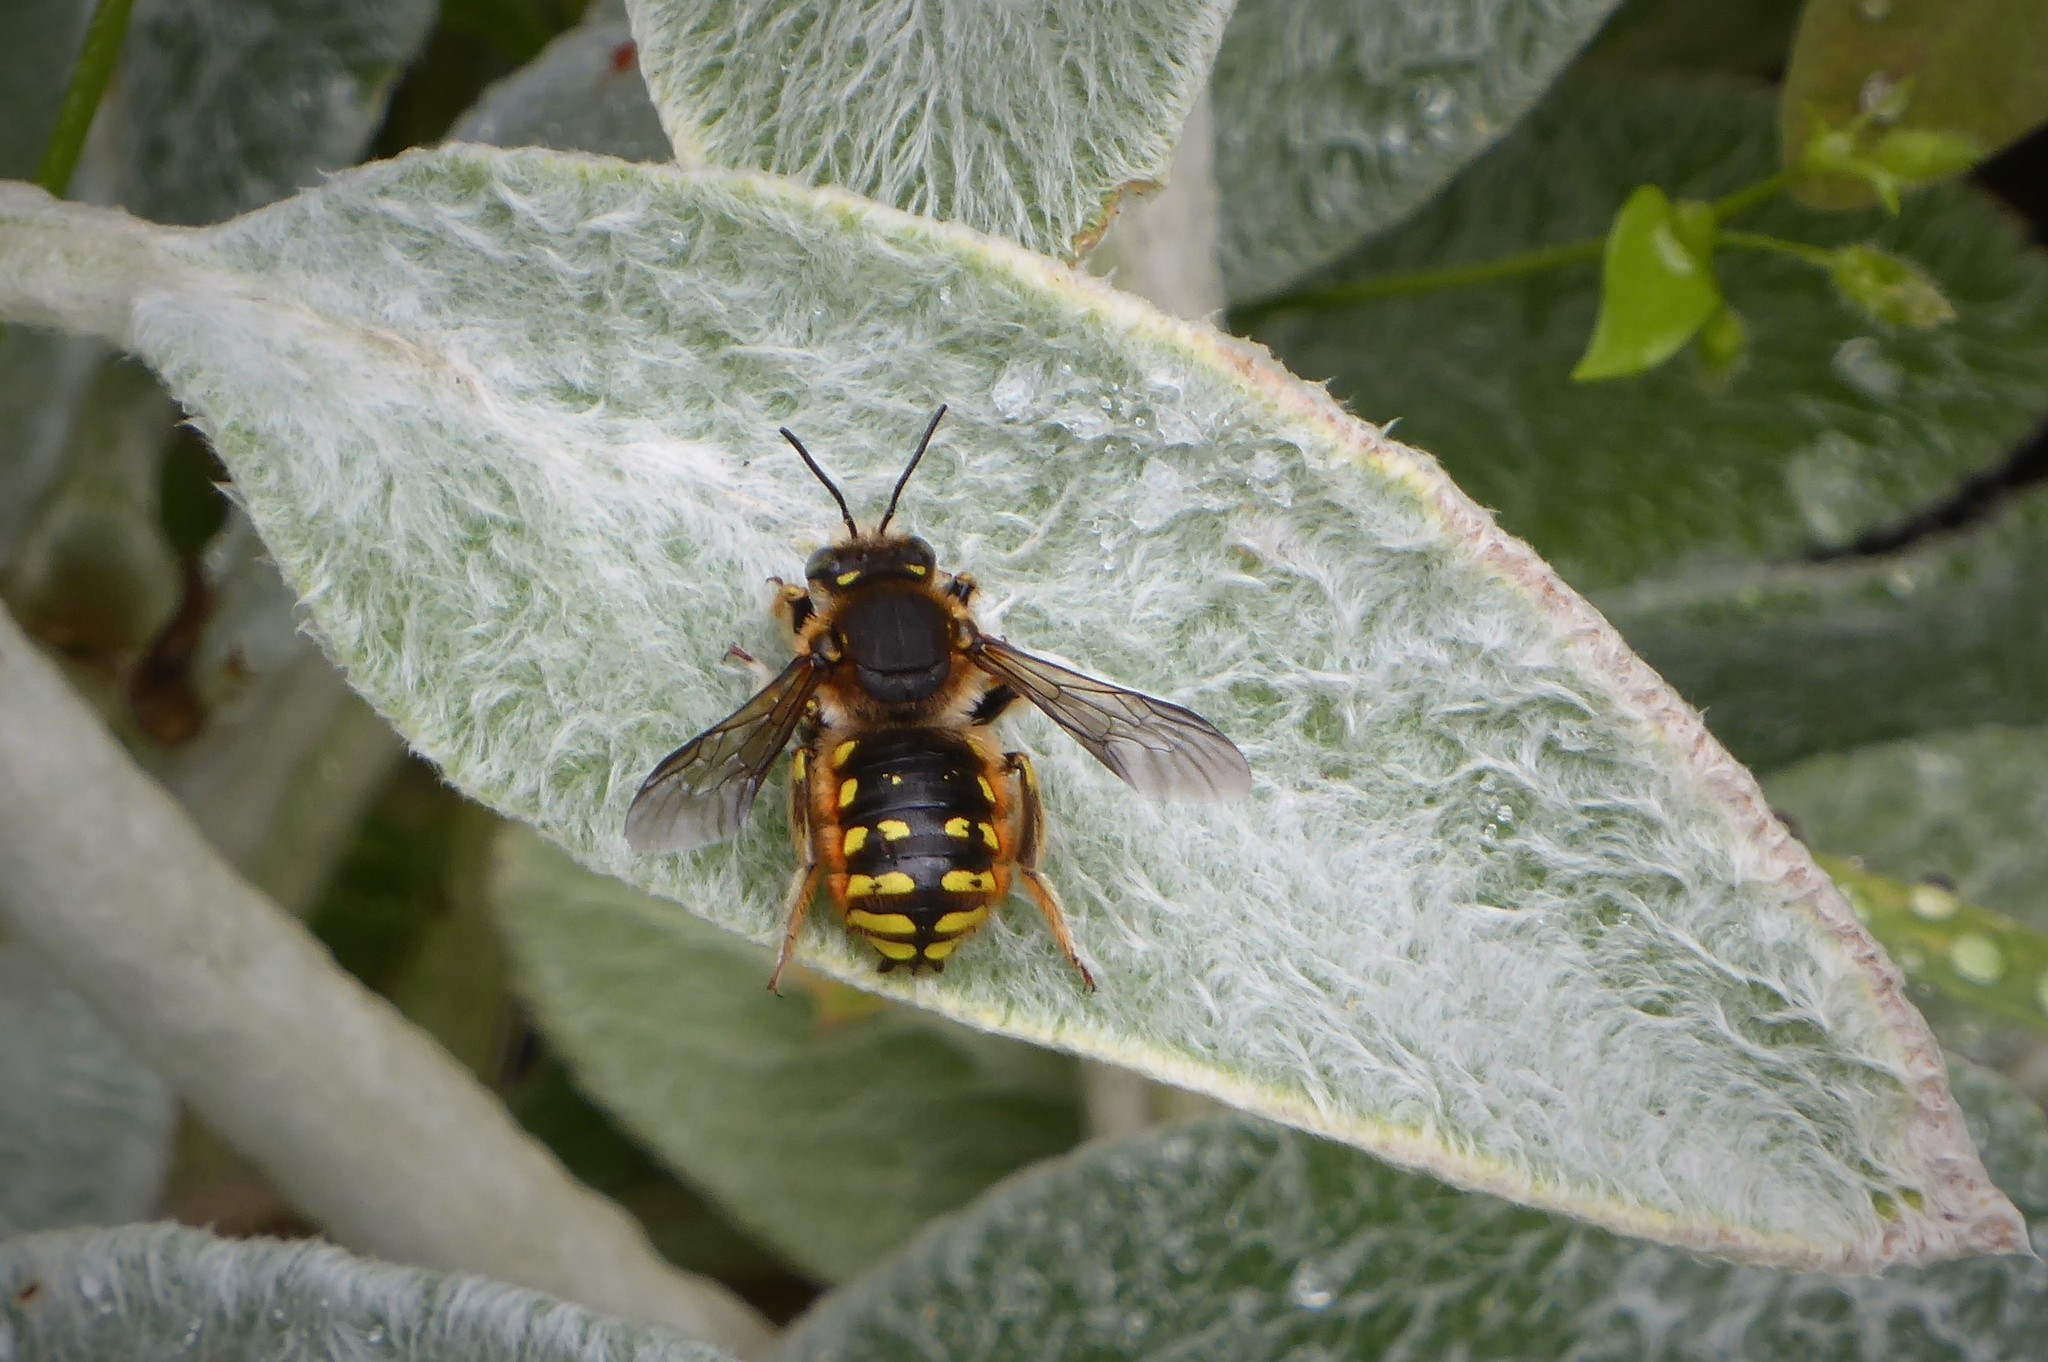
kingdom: Animalia
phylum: Arthropoda
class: Insecta
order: Hymenoptera
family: Megachilidae
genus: Anthidium
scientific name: Anthidium manicatum
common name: Wool carder bee
